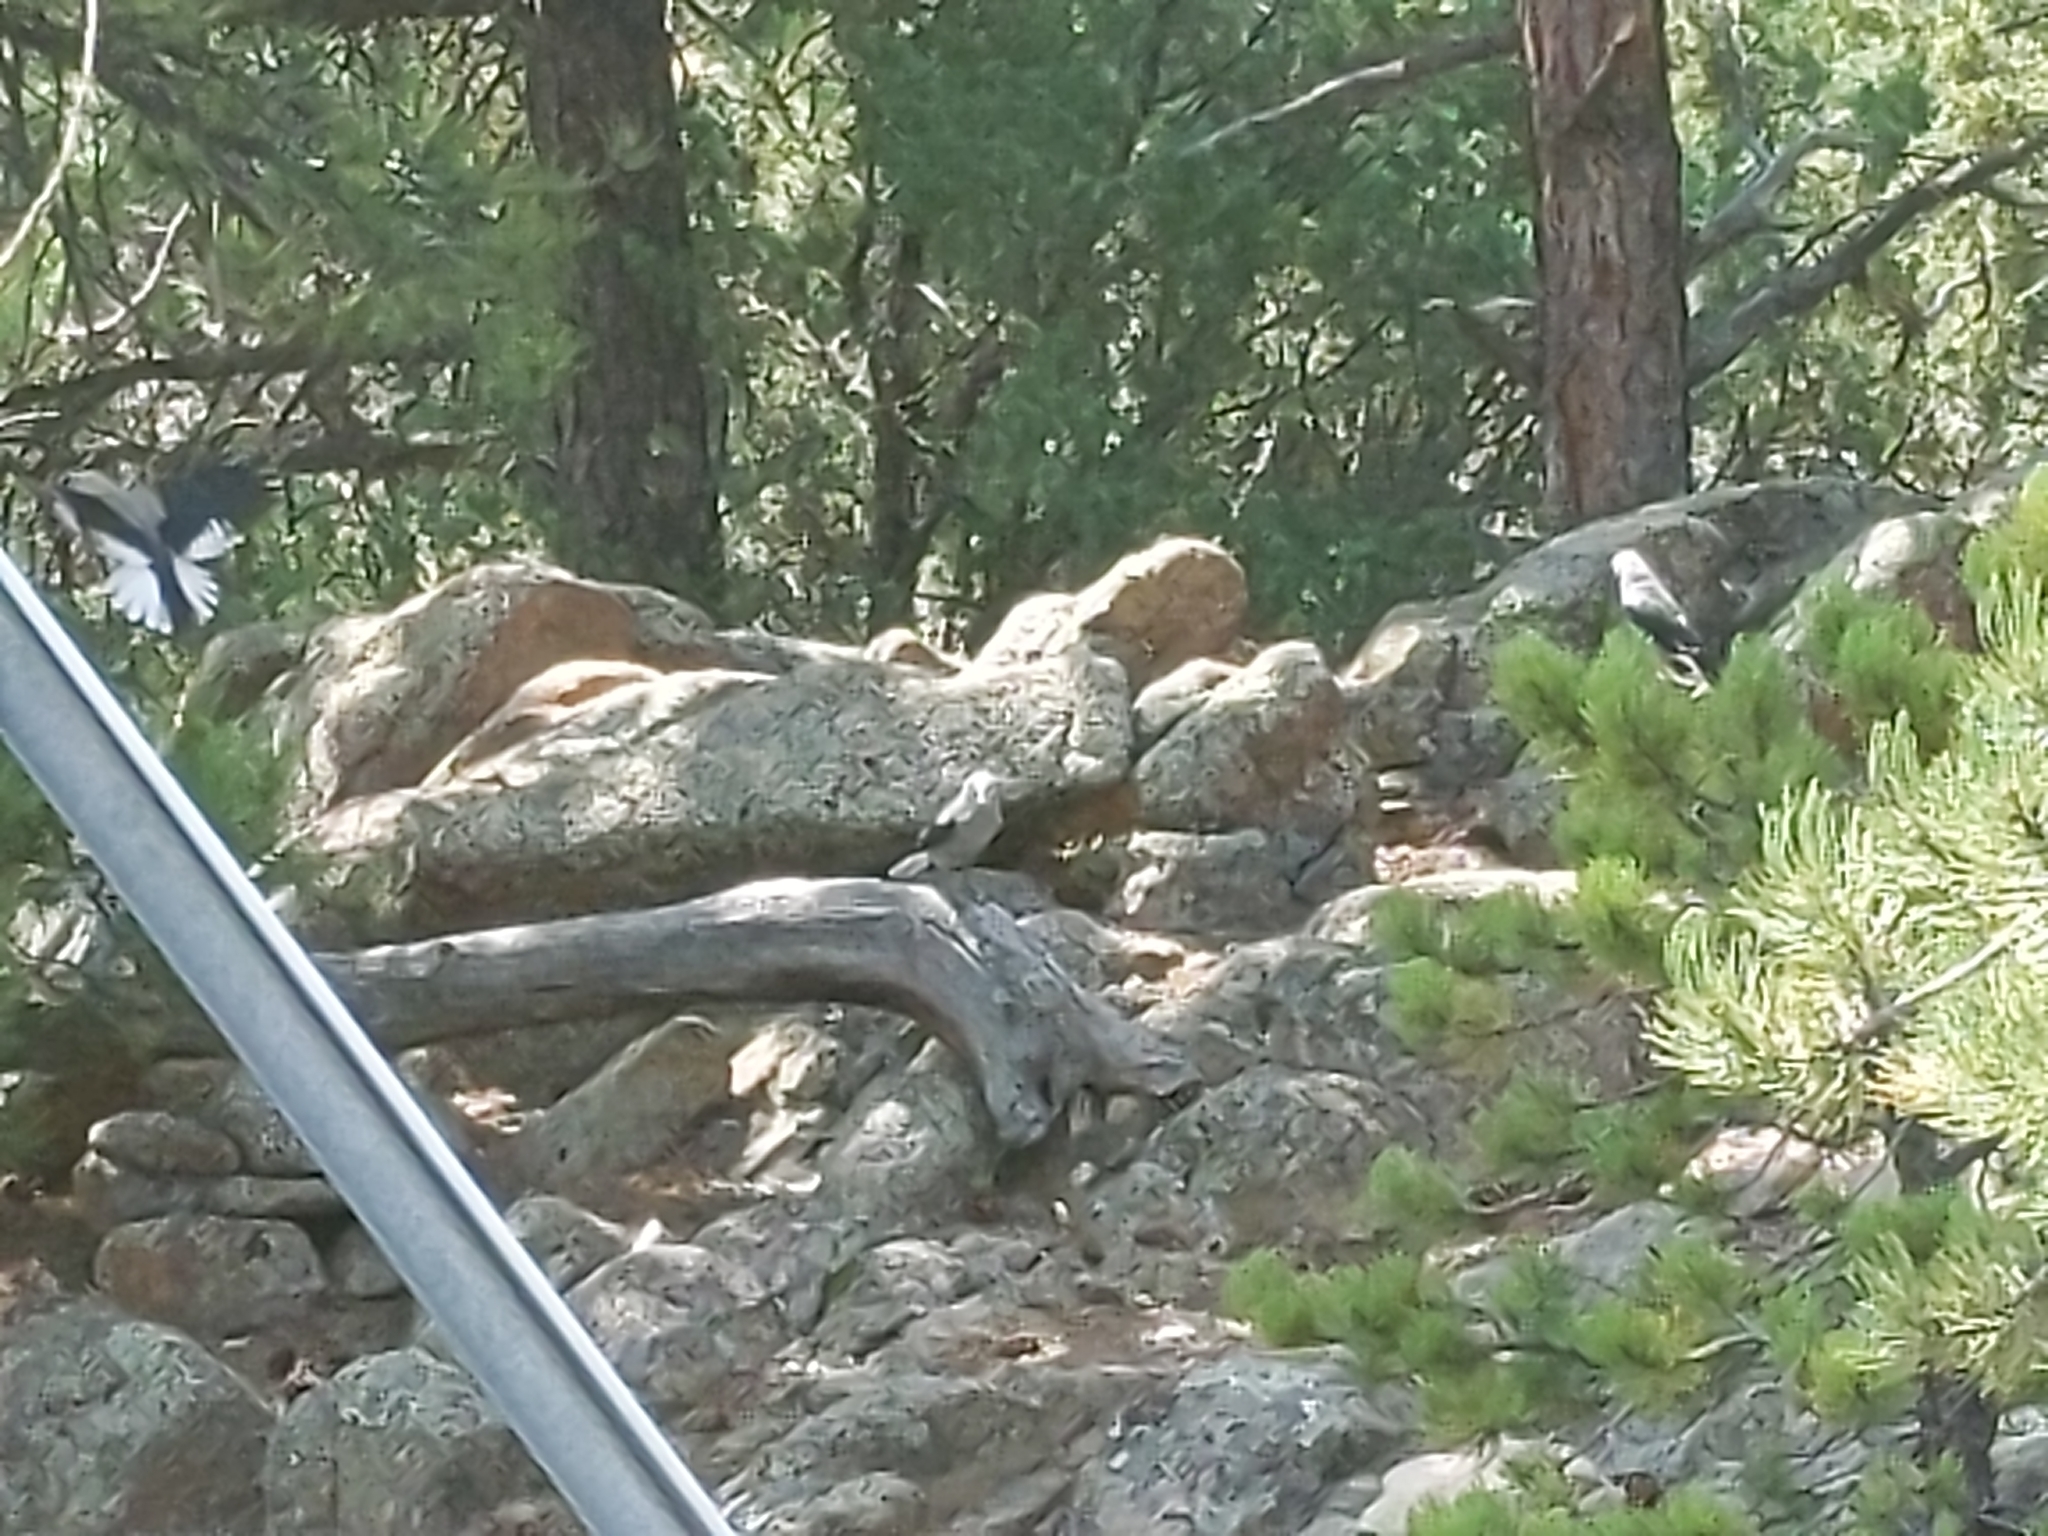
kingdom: Animalia
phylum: Chordata
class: Aves
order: Passeriformes
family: Corvidae
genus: Nucifraga
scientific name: Nucifraga columbiana
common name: Clark's nutcracker
